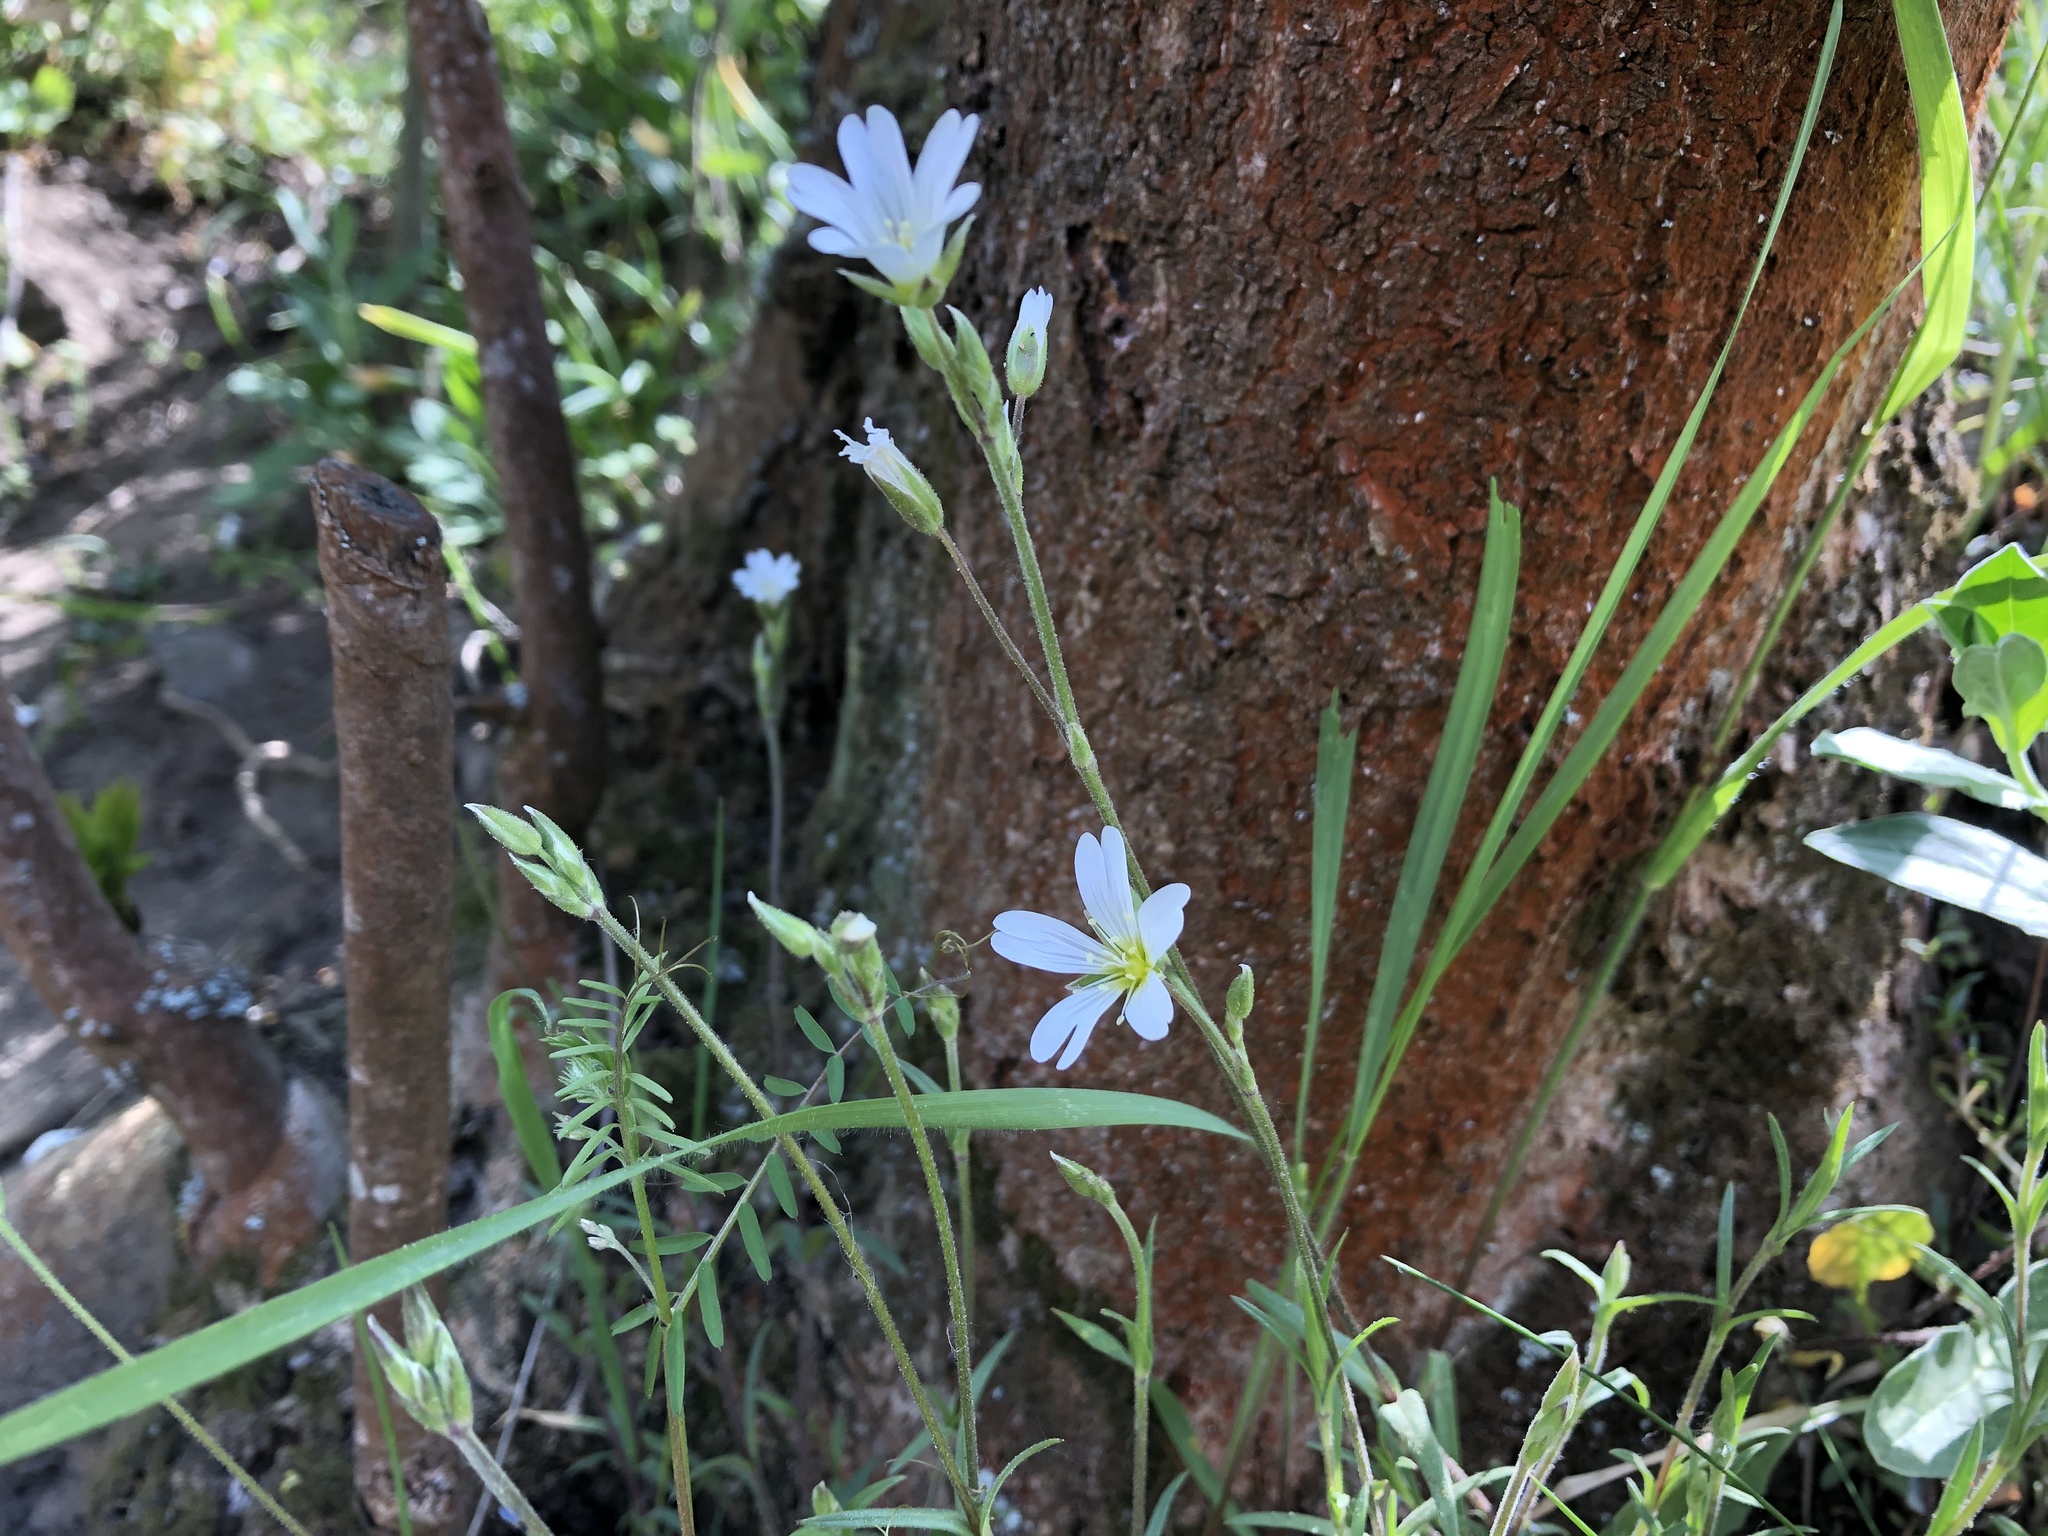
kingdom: Plantae
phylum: Tracheophyta
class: Magnoliopsida
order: Caryophyllales
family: Caryophyllaceae
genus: Cerastium
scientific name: Cerastium arvense
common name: Field mouse-ear
